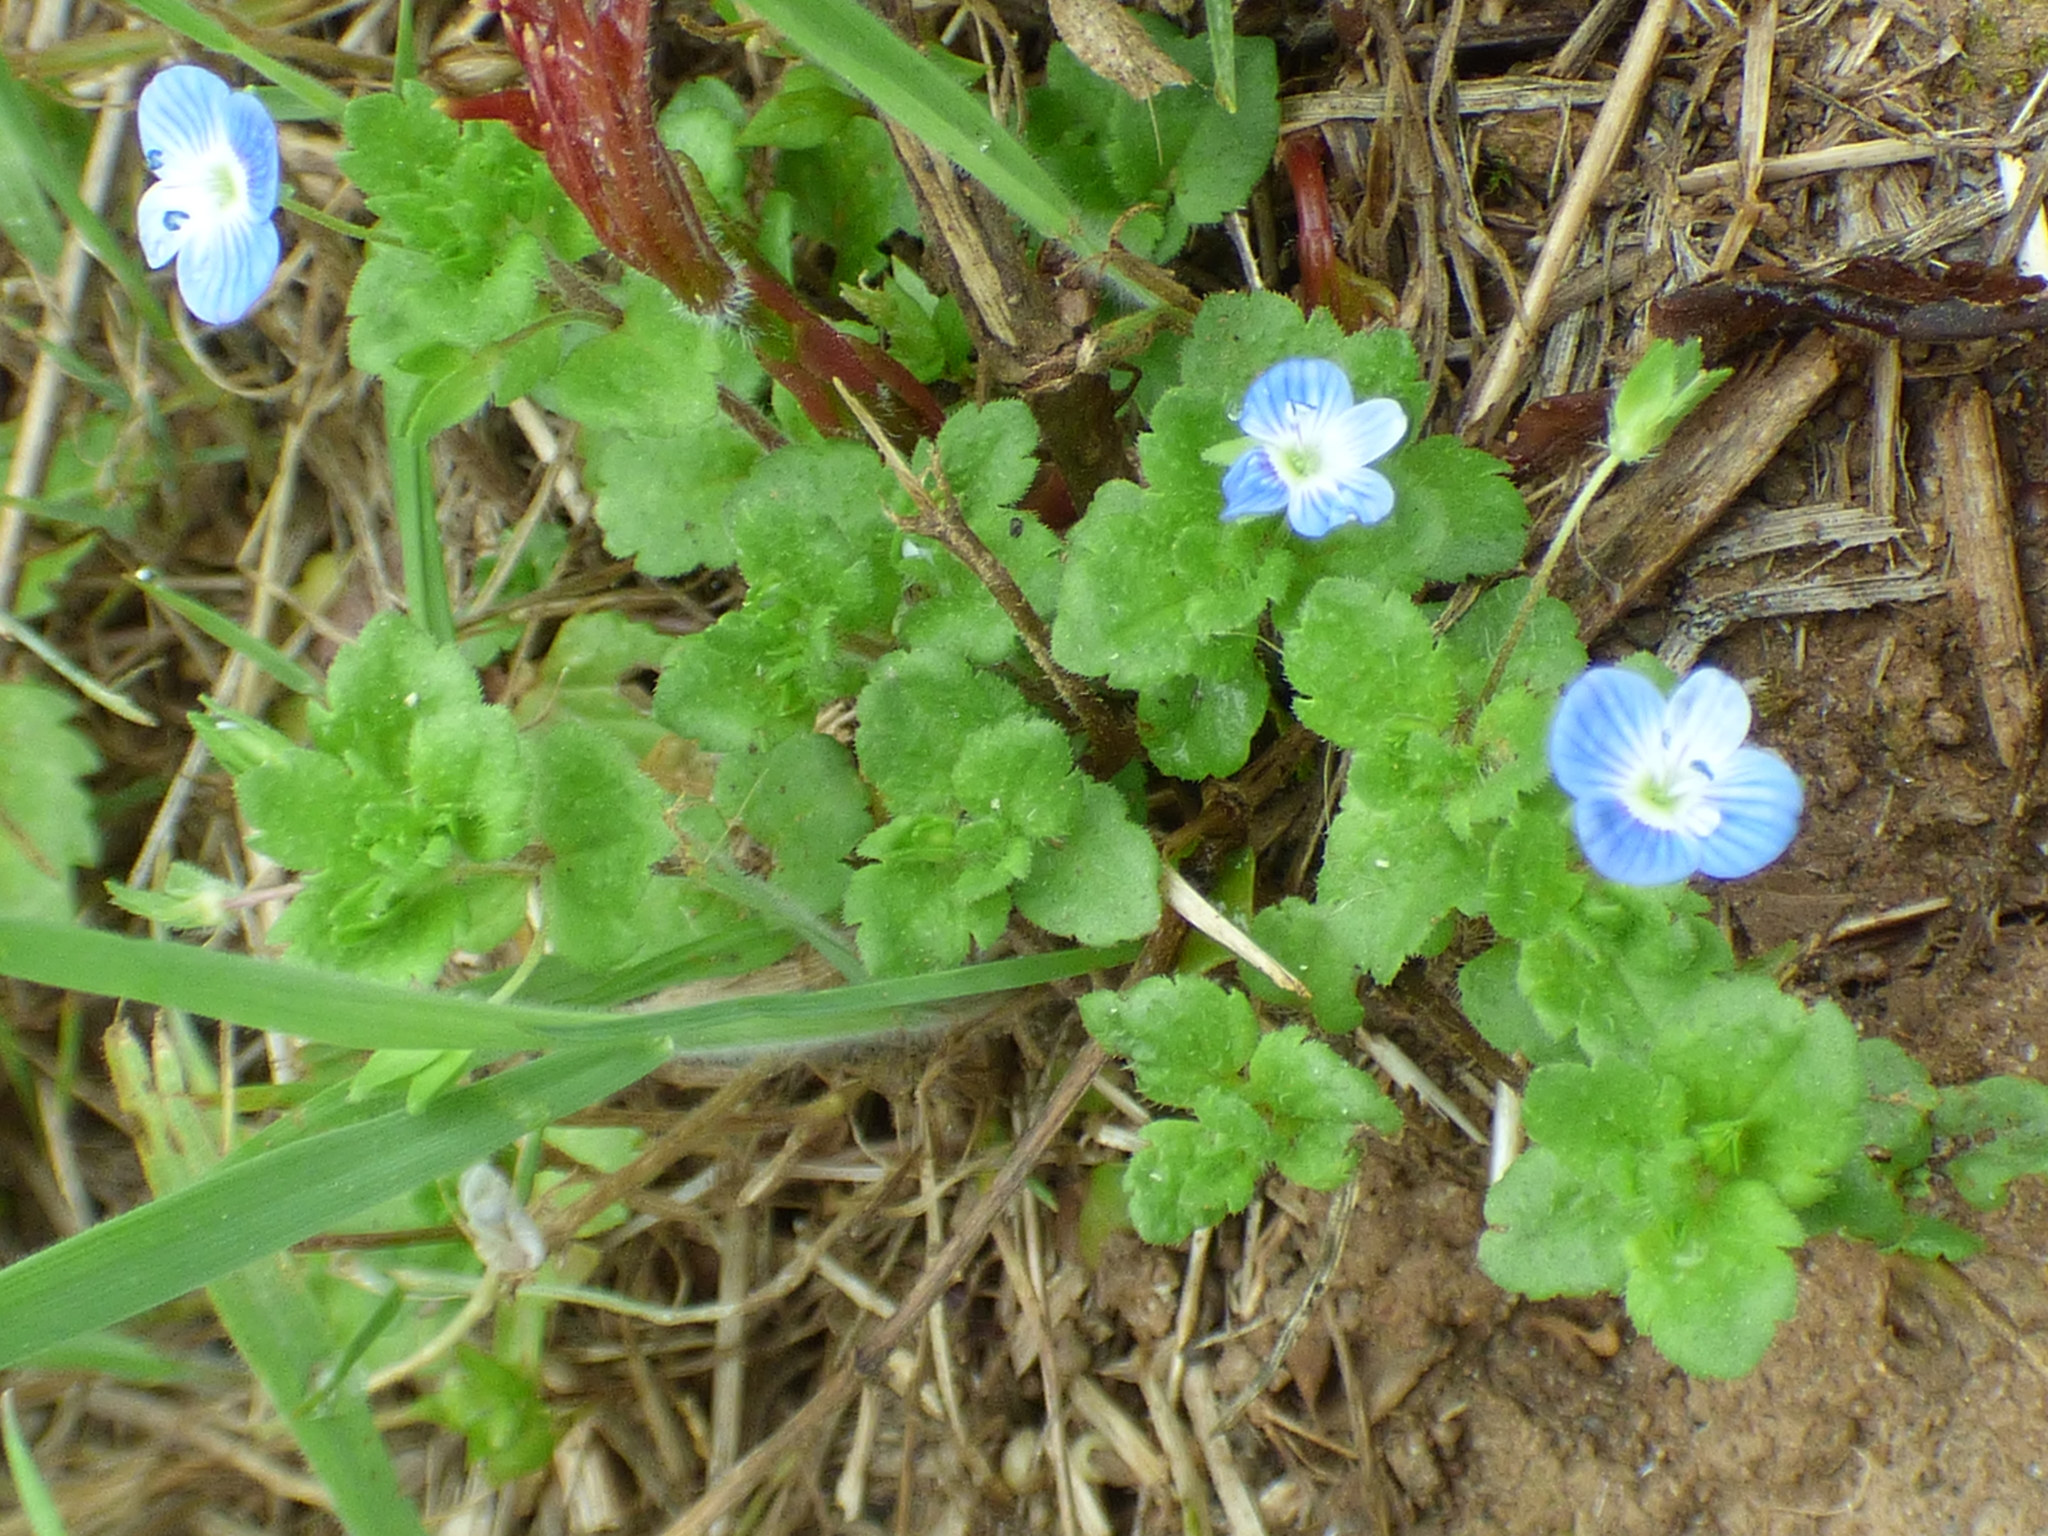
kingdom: Plantae
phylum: Tracheophyta
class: Magnoliopsida
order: Lamiales
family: Plantaginaceae
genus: Veronica
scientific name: Veronica persica
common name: Common field-speedwell
